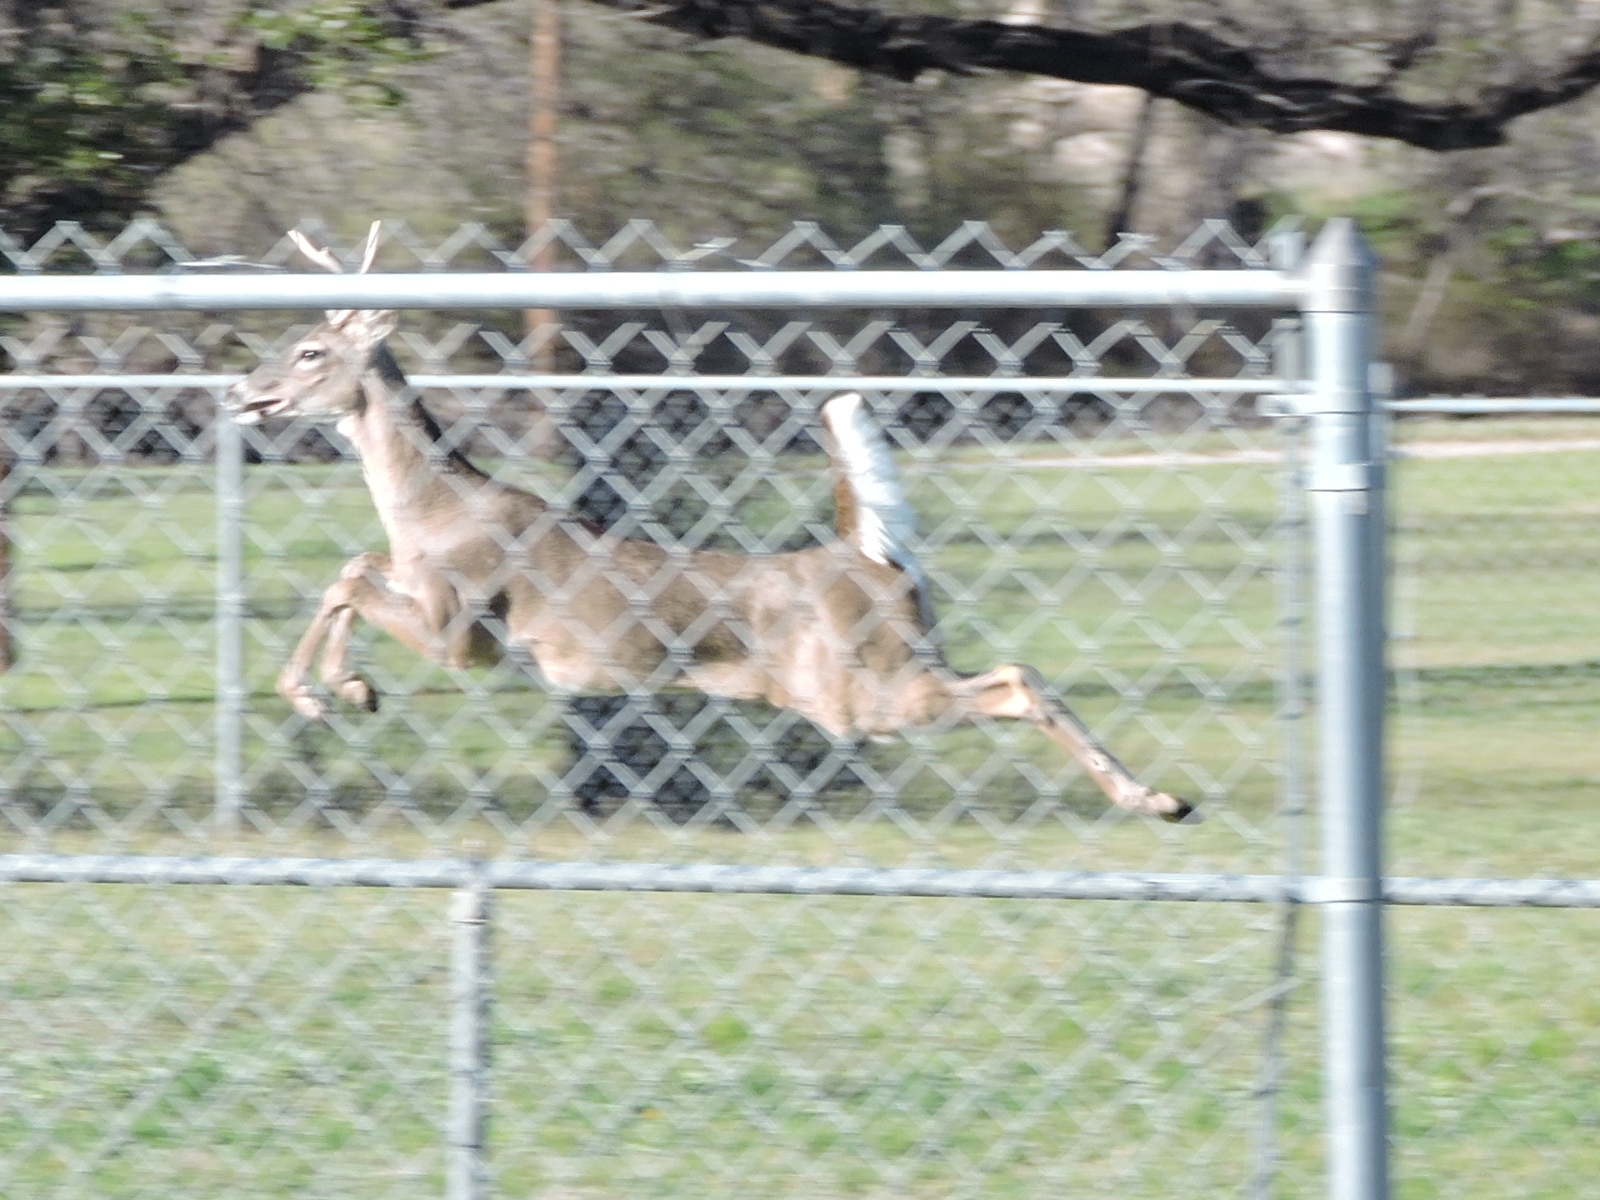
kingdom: Animalia
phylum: Chordata
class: Mammalia
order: Artiodactyla
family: Cervidae
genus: Odocoileus
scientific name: Odocoileus virginianus
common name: White-tailed deer
